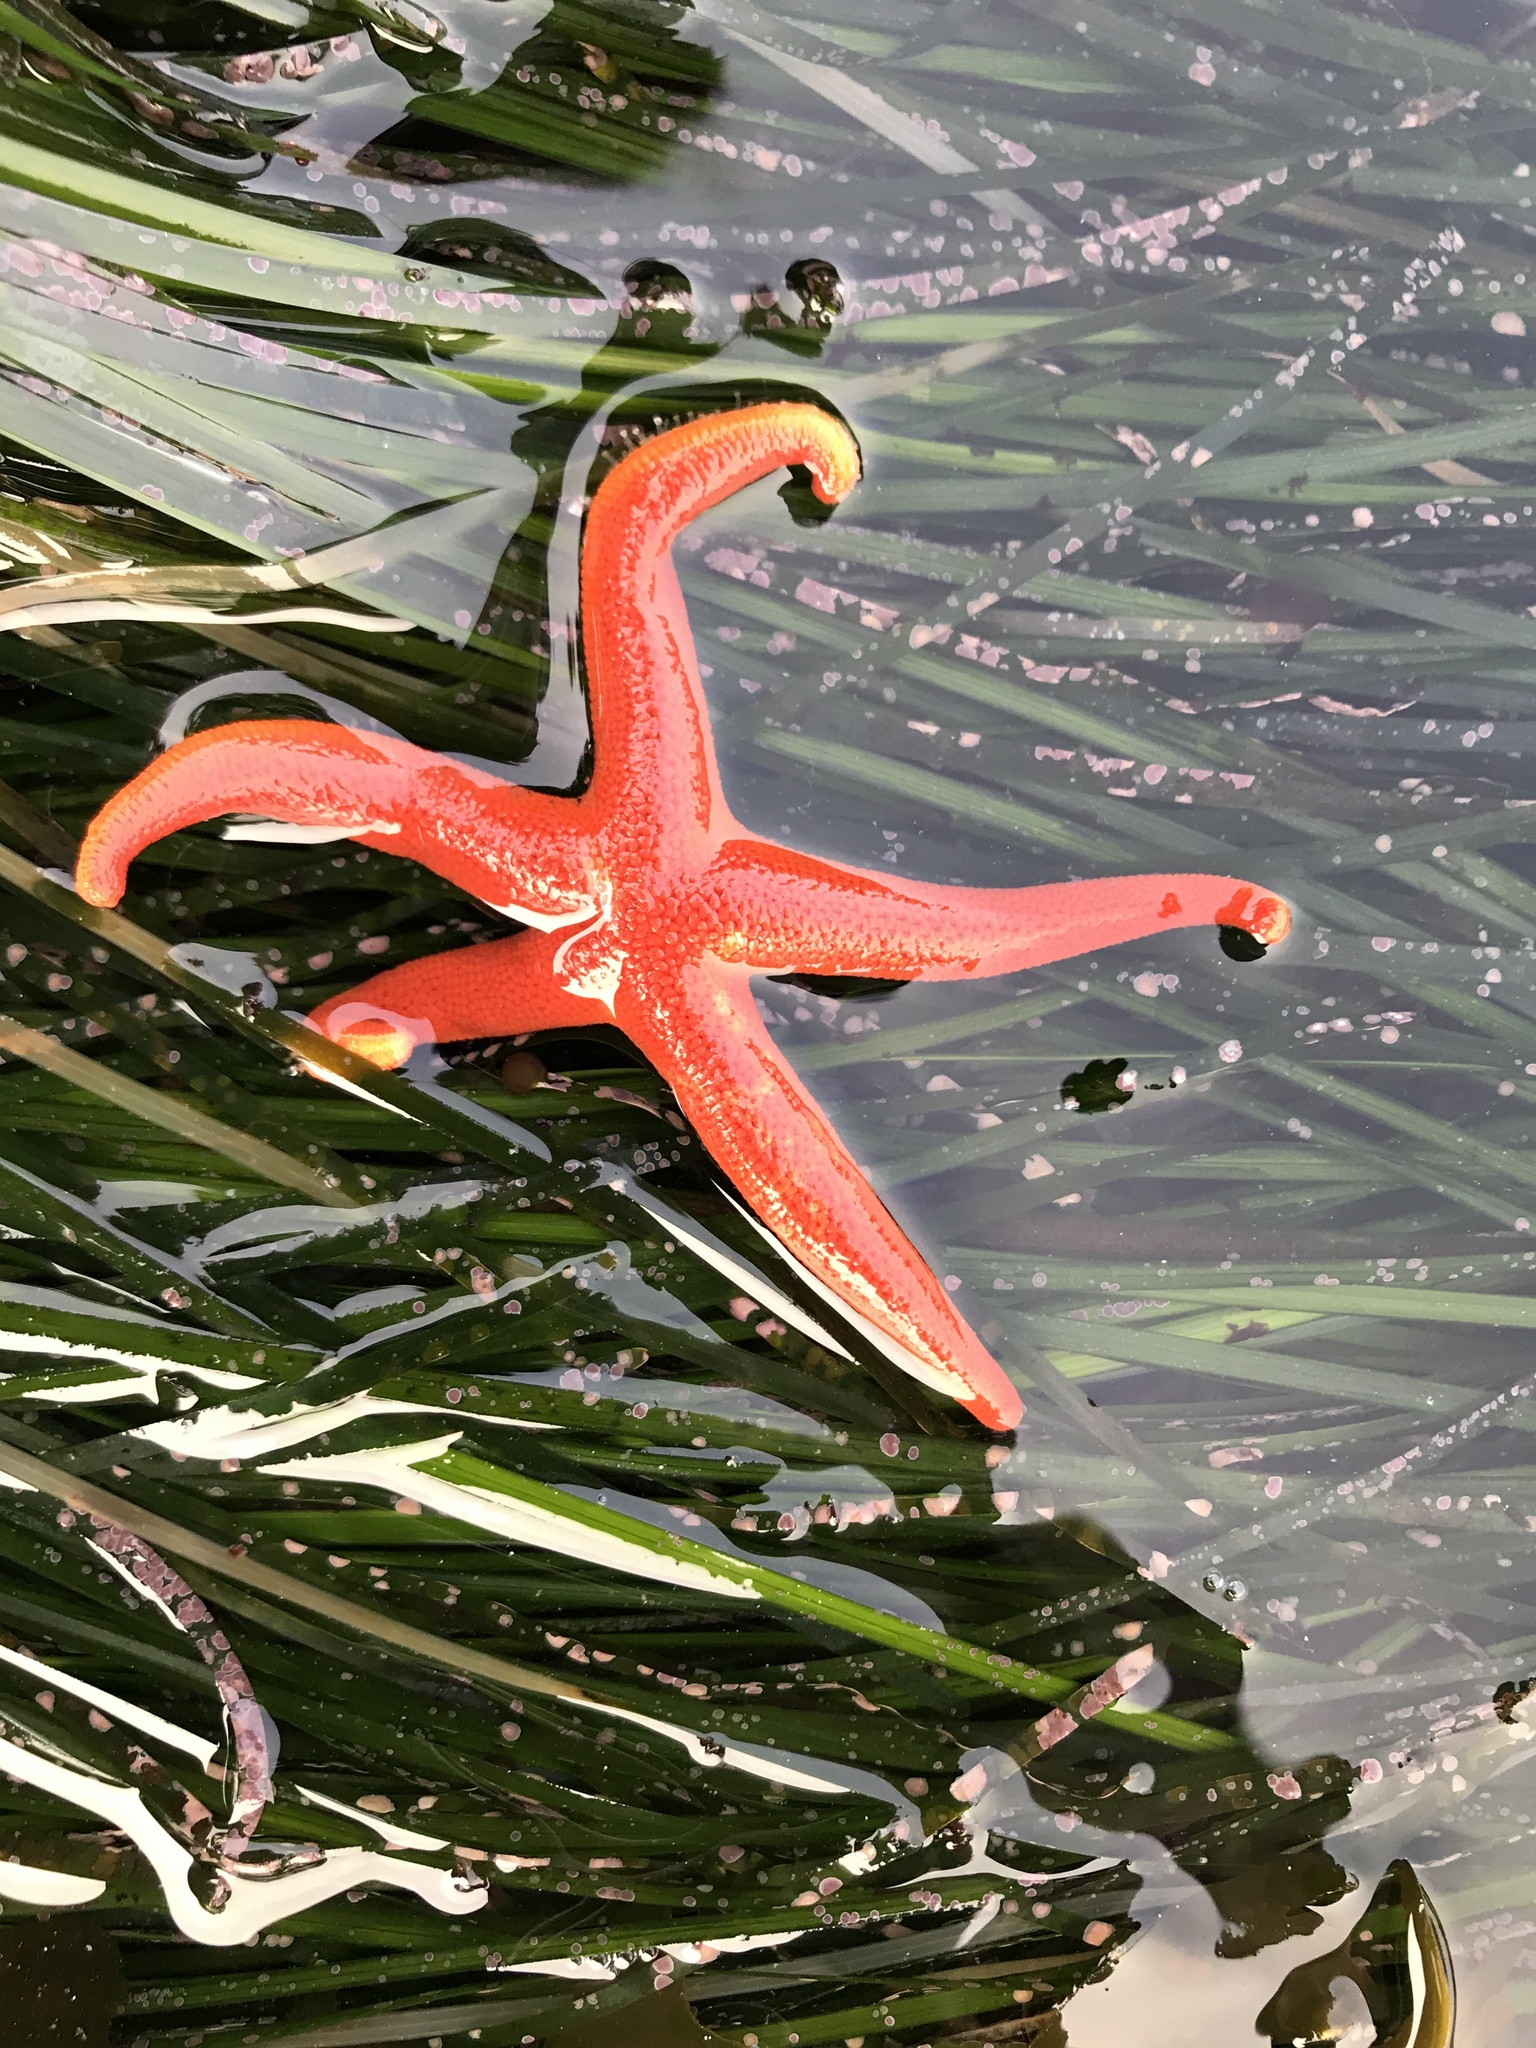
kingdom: Animalia
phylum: Echinodermata
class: Asteroidea
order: Spinulosida
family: Echinasteridae
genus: Henricia
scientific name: Henricia leviuscula
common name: Pacific blood star
